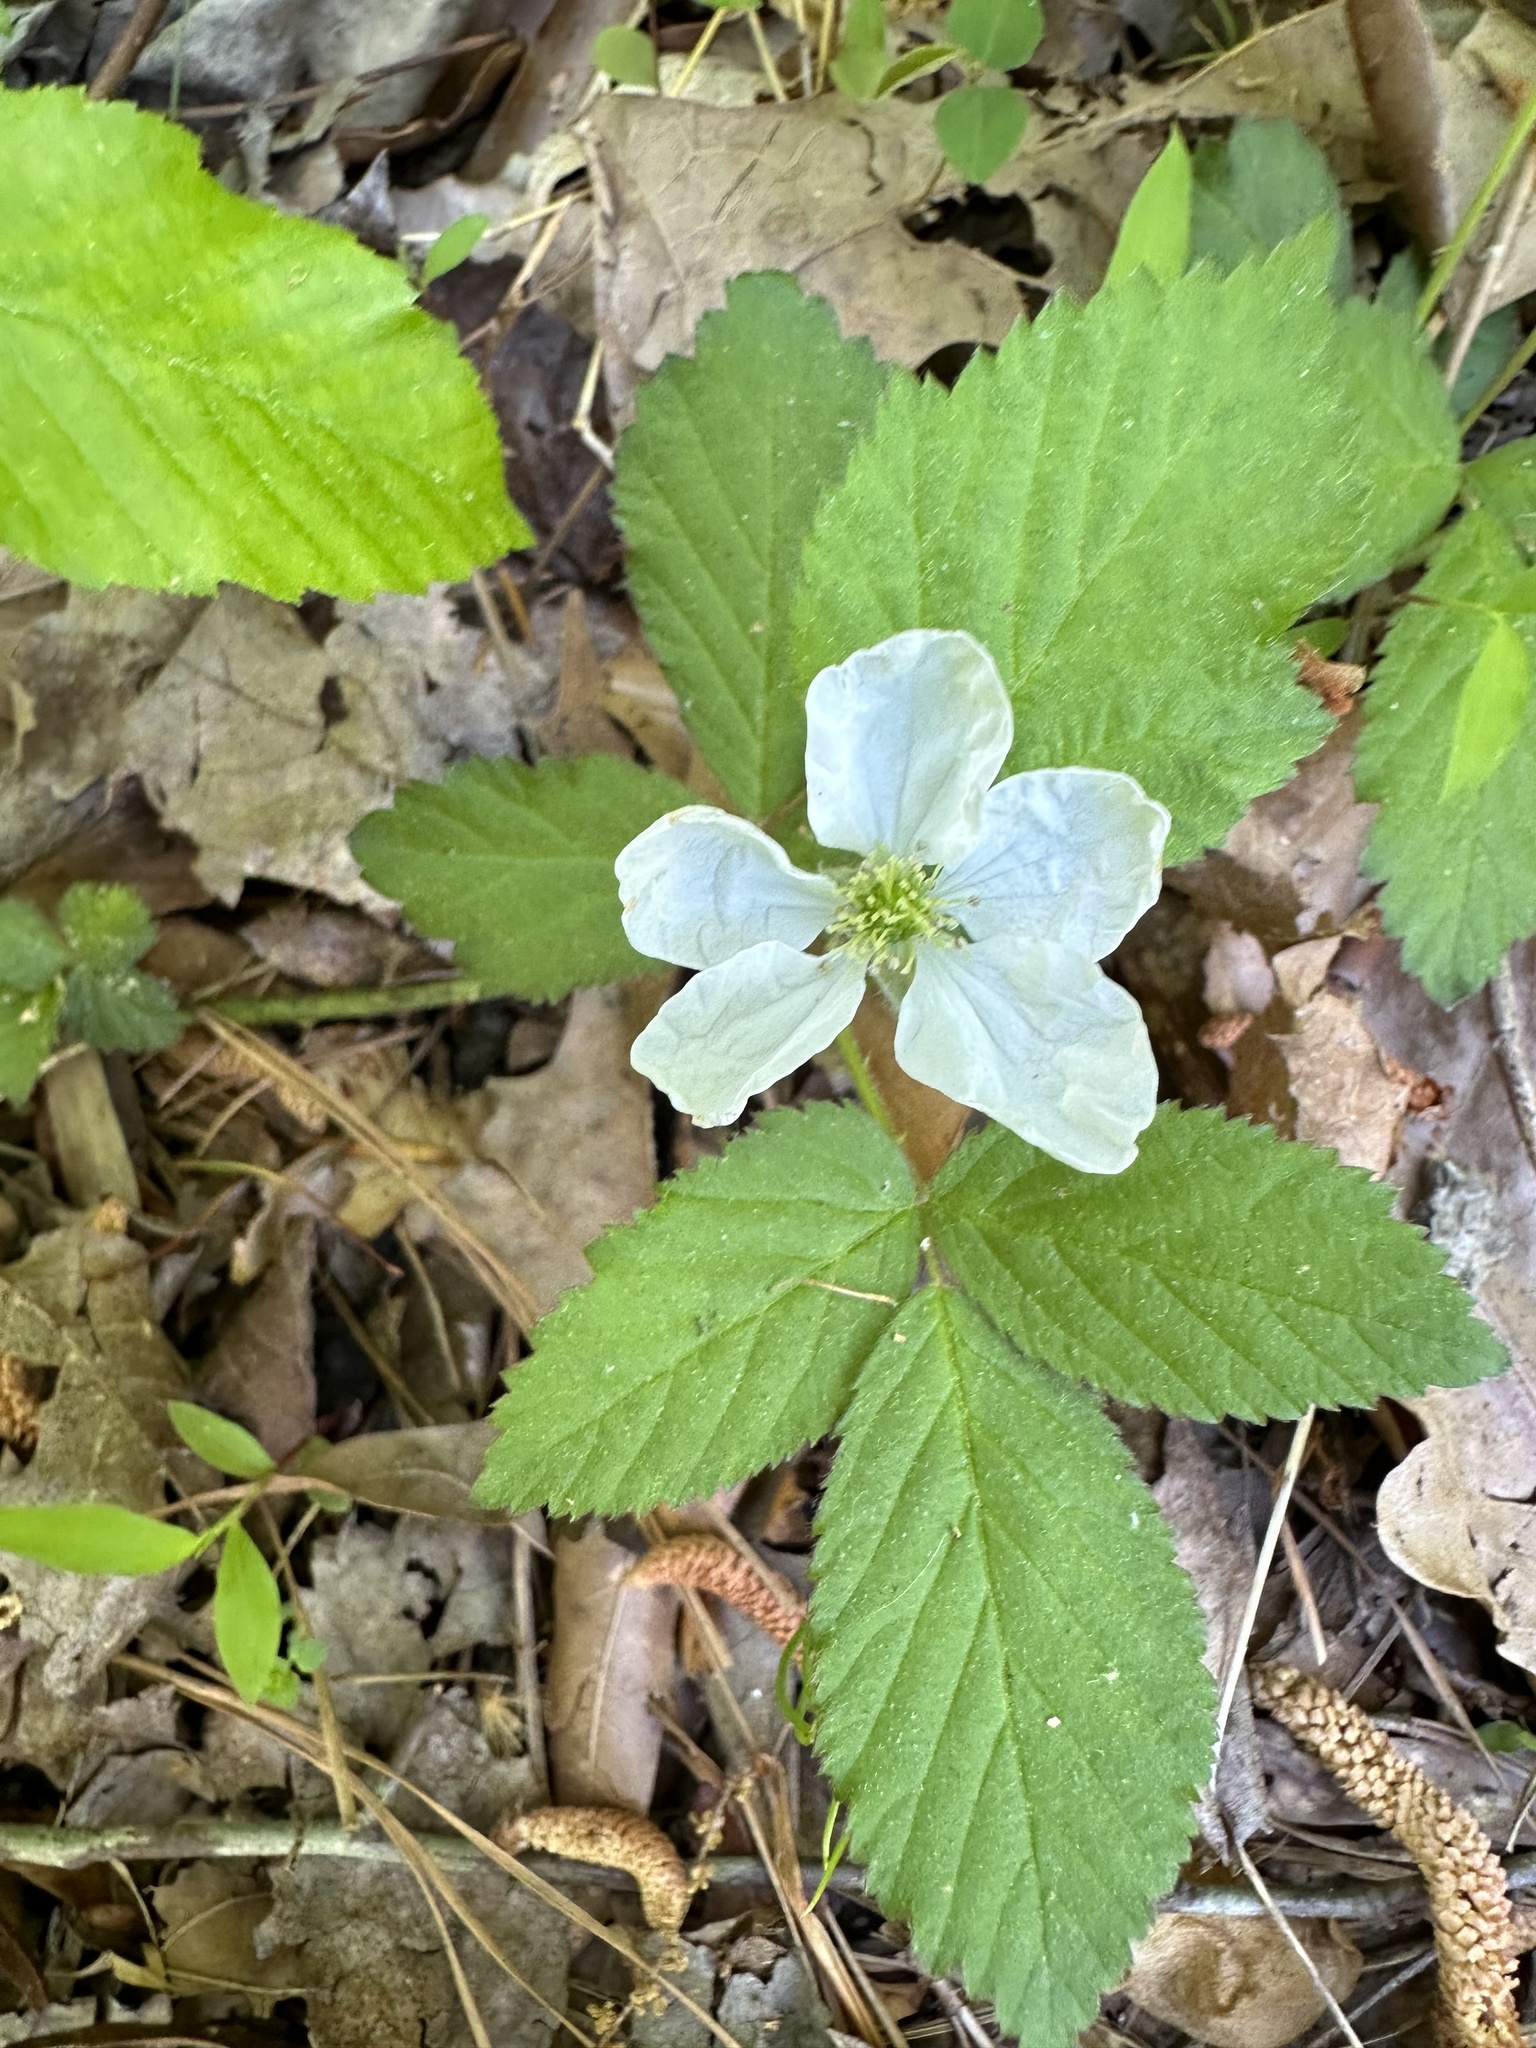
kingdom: Plantae
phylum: Tracheophyta
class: Magnoliopsida
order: Rosales
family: Rosaceae
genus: Rubus
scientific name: Rubus flagellaris
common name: American dewberry
